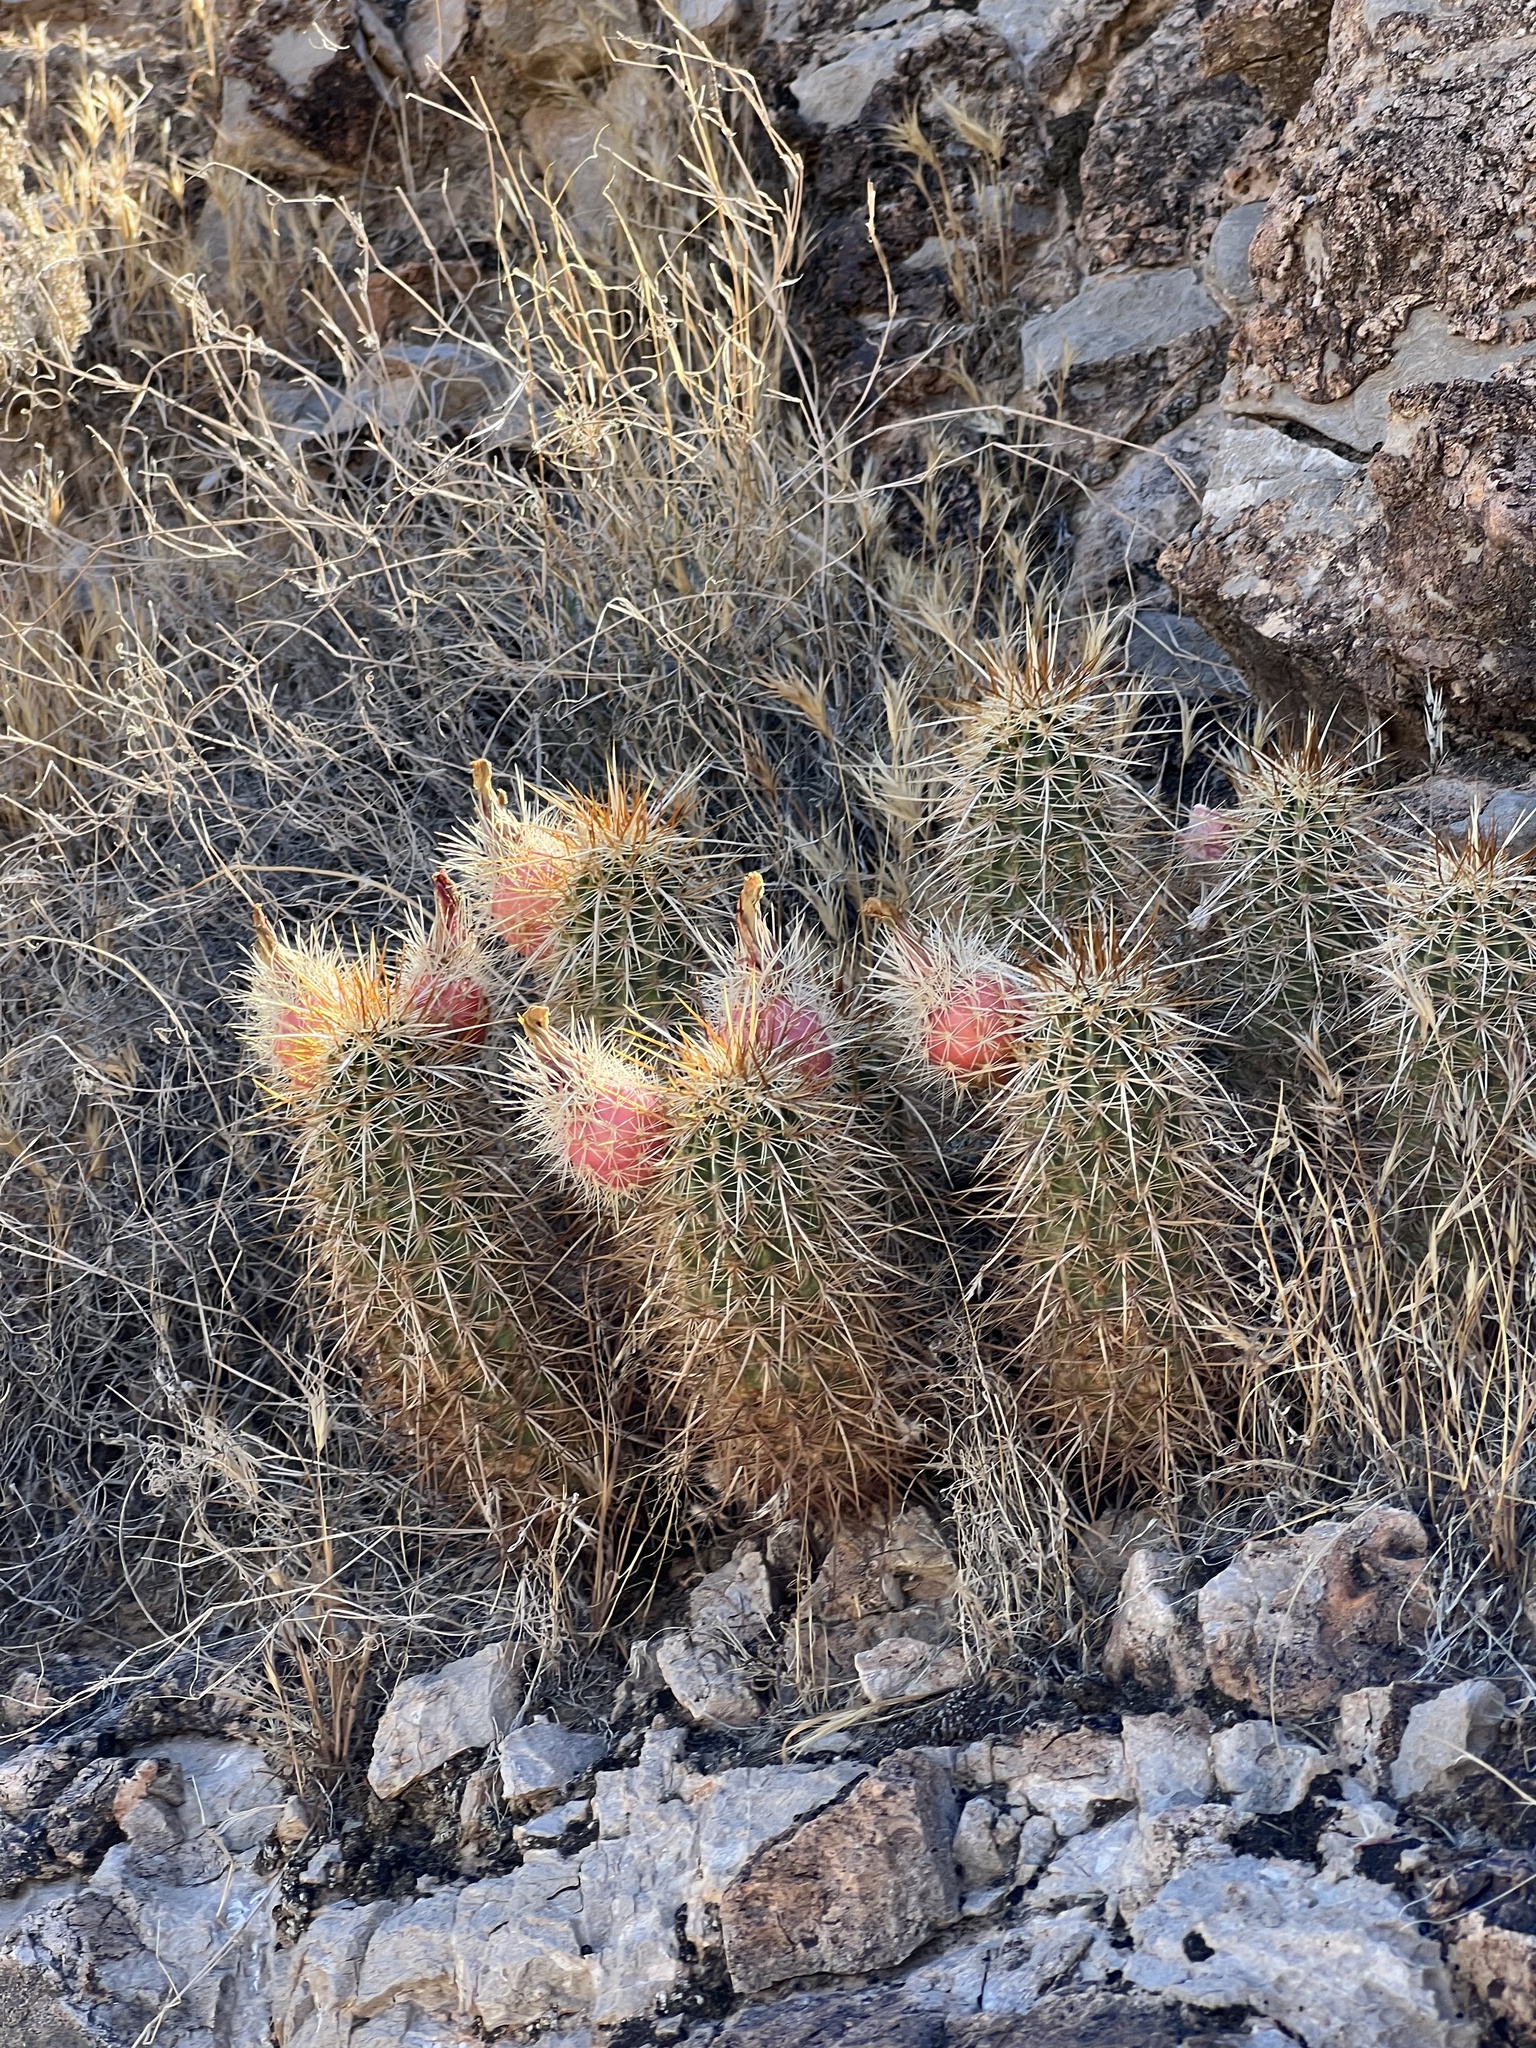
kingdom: Plantae
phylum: Tracheophyta
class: Magnoliopsida
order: Caryophyllales
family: Cactaceae
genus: Echinocereus
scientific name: Echinocereus engelmannii
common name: Engelmann's hedgehog cactus
